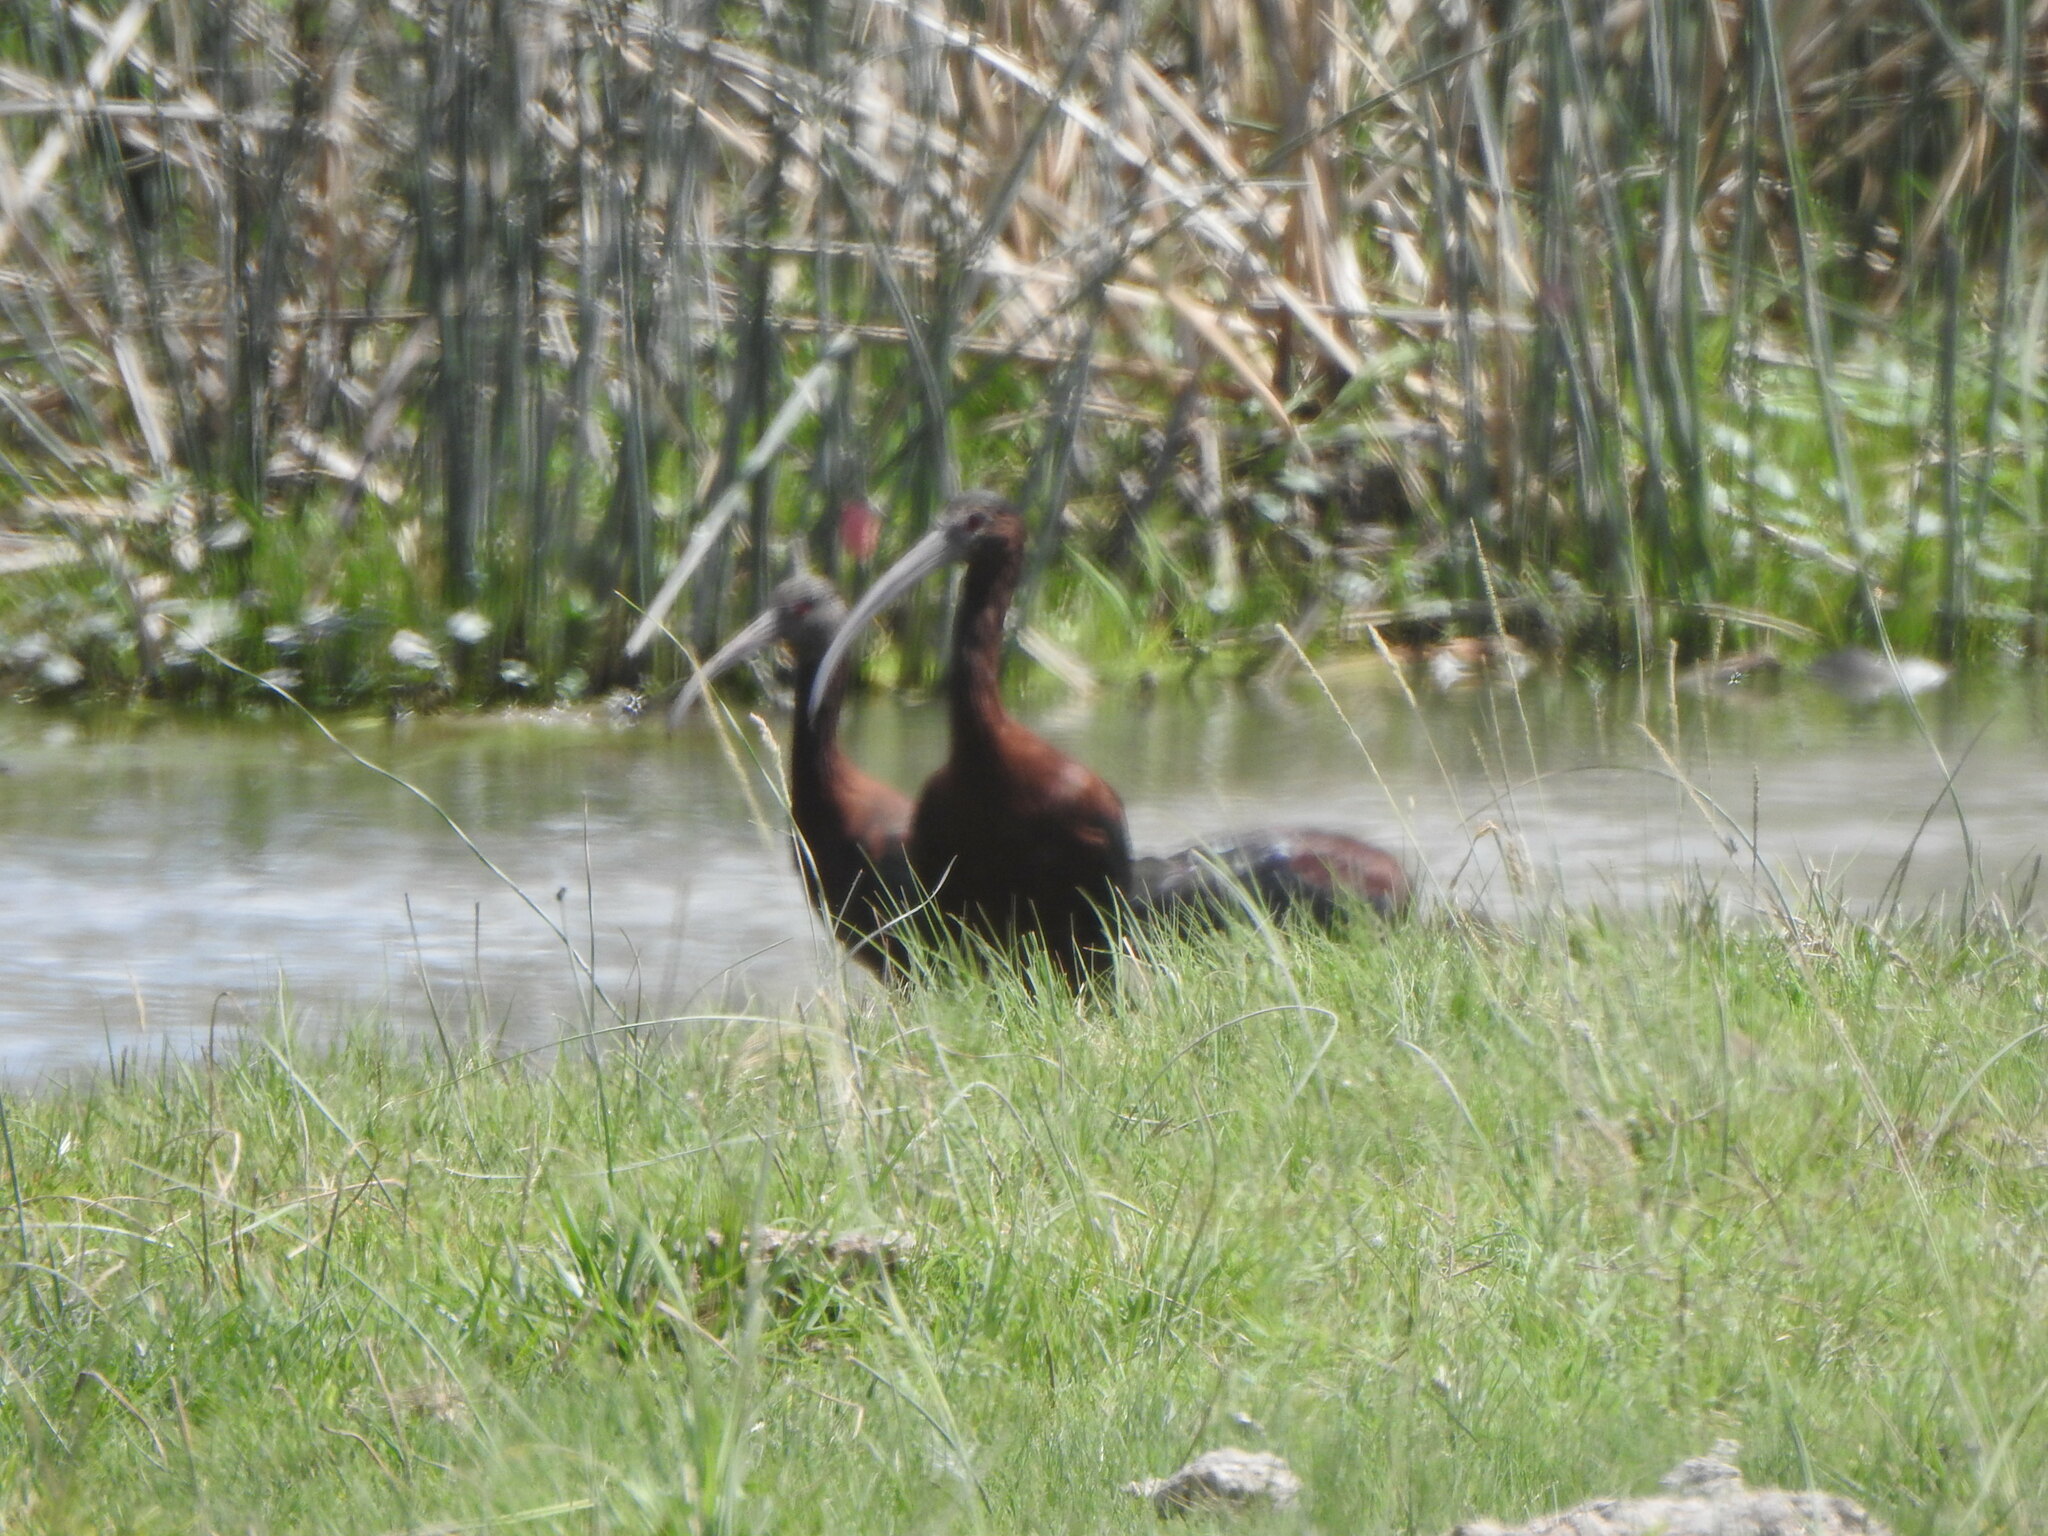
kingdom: Animalia
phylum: Chordata
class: Aves
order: Pelecaniformes
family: Threskiornithidae
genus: Plegadis
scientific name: Plegadis chihi
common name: White-faced ibis
